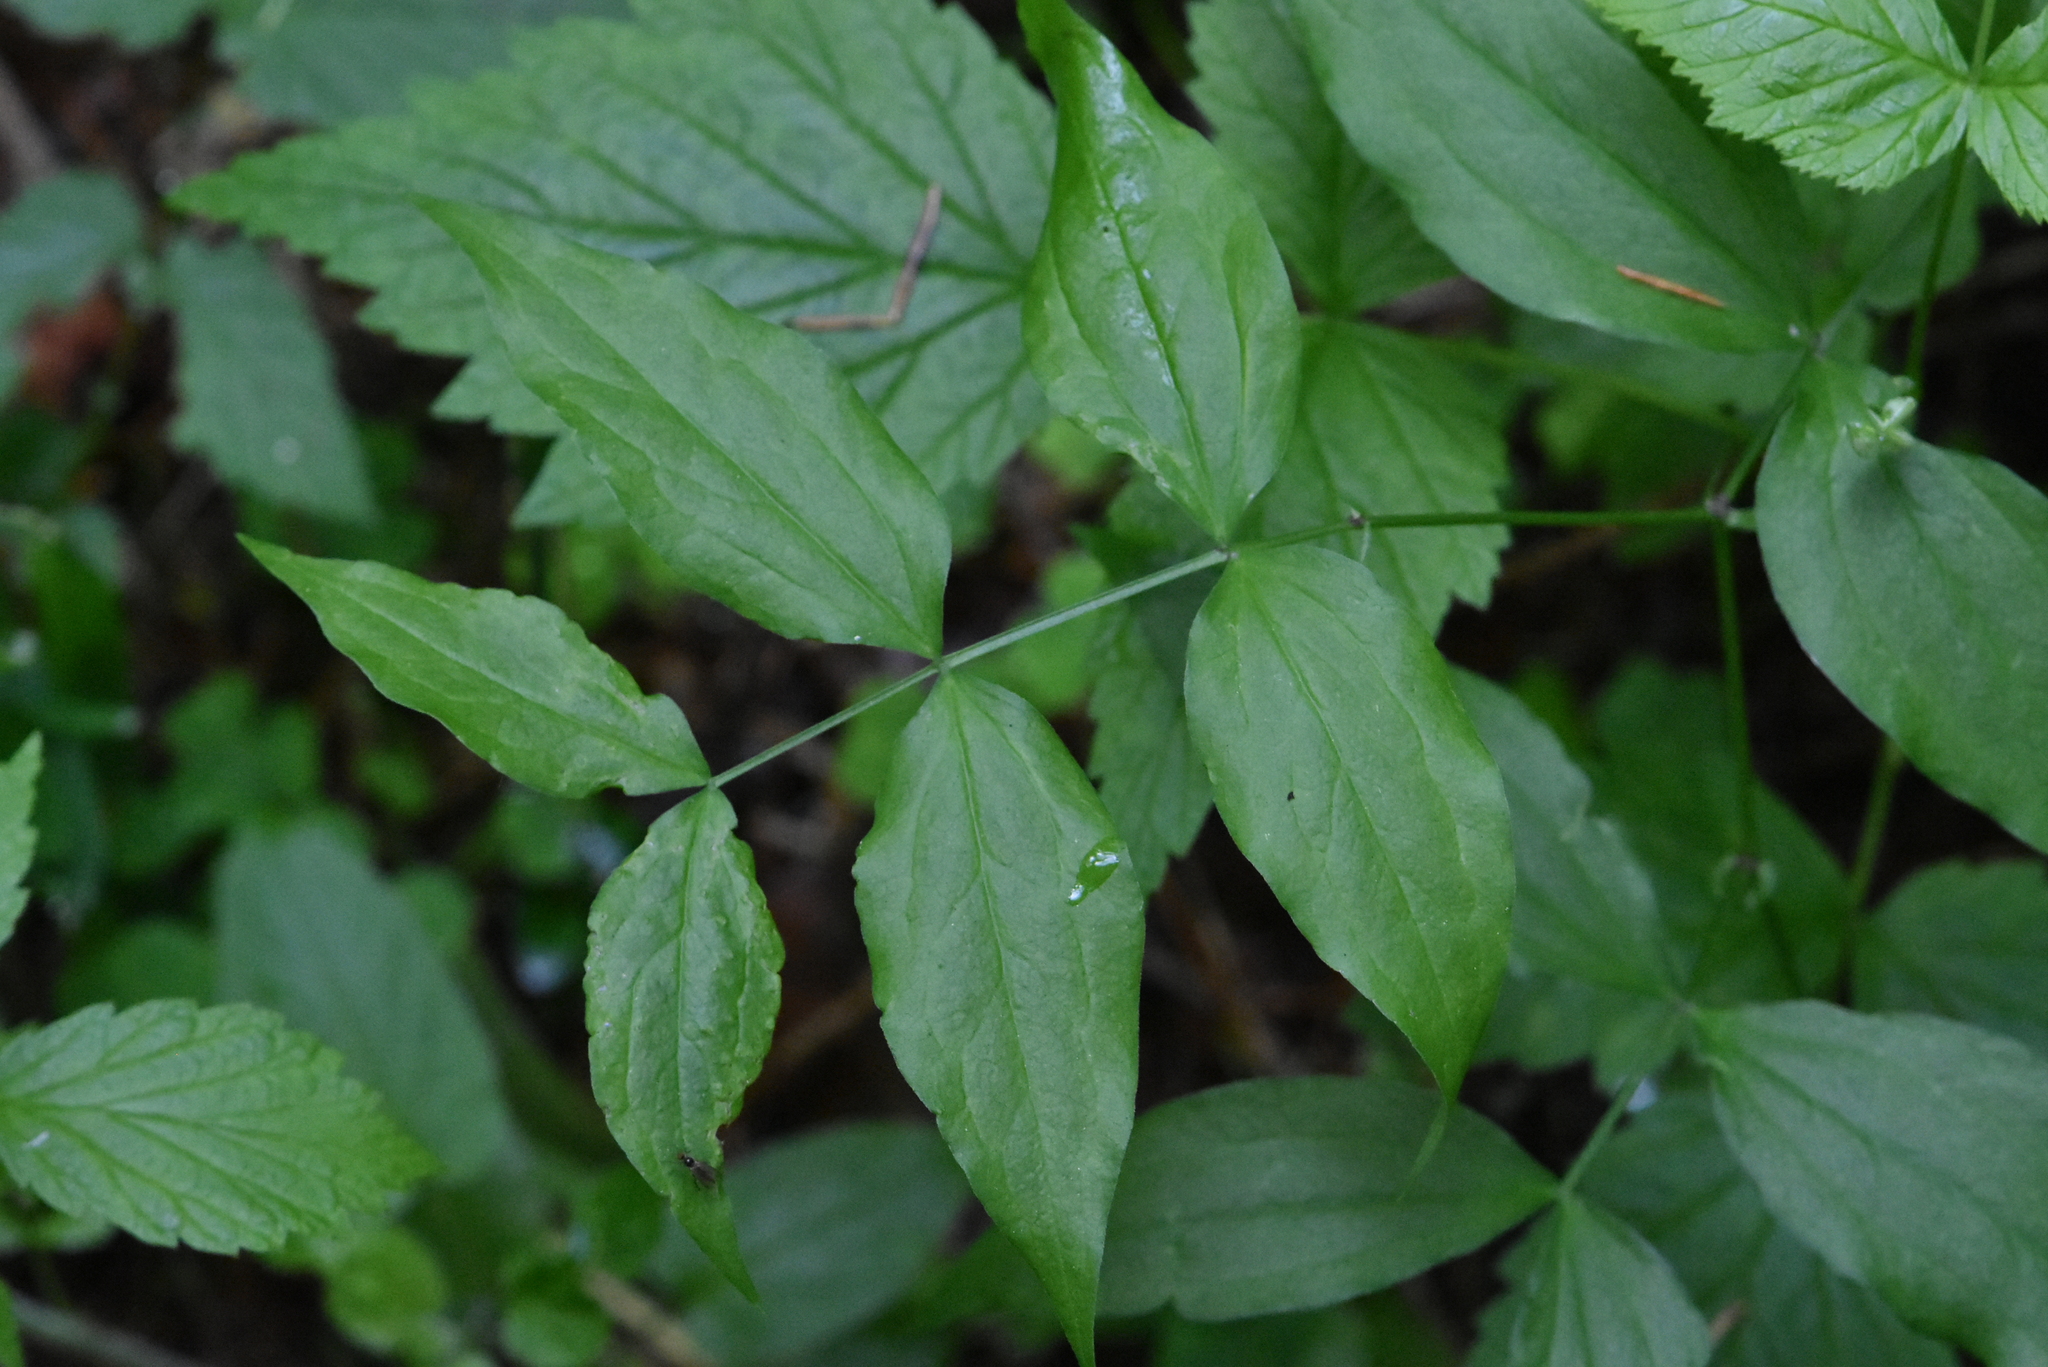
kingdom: Plantae
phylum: Tracheophyta
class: Magnoliopsida
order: Fabales
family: Fabaceae
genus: Lathyrus
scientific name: Lathyrus vernus
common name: Spring pea
